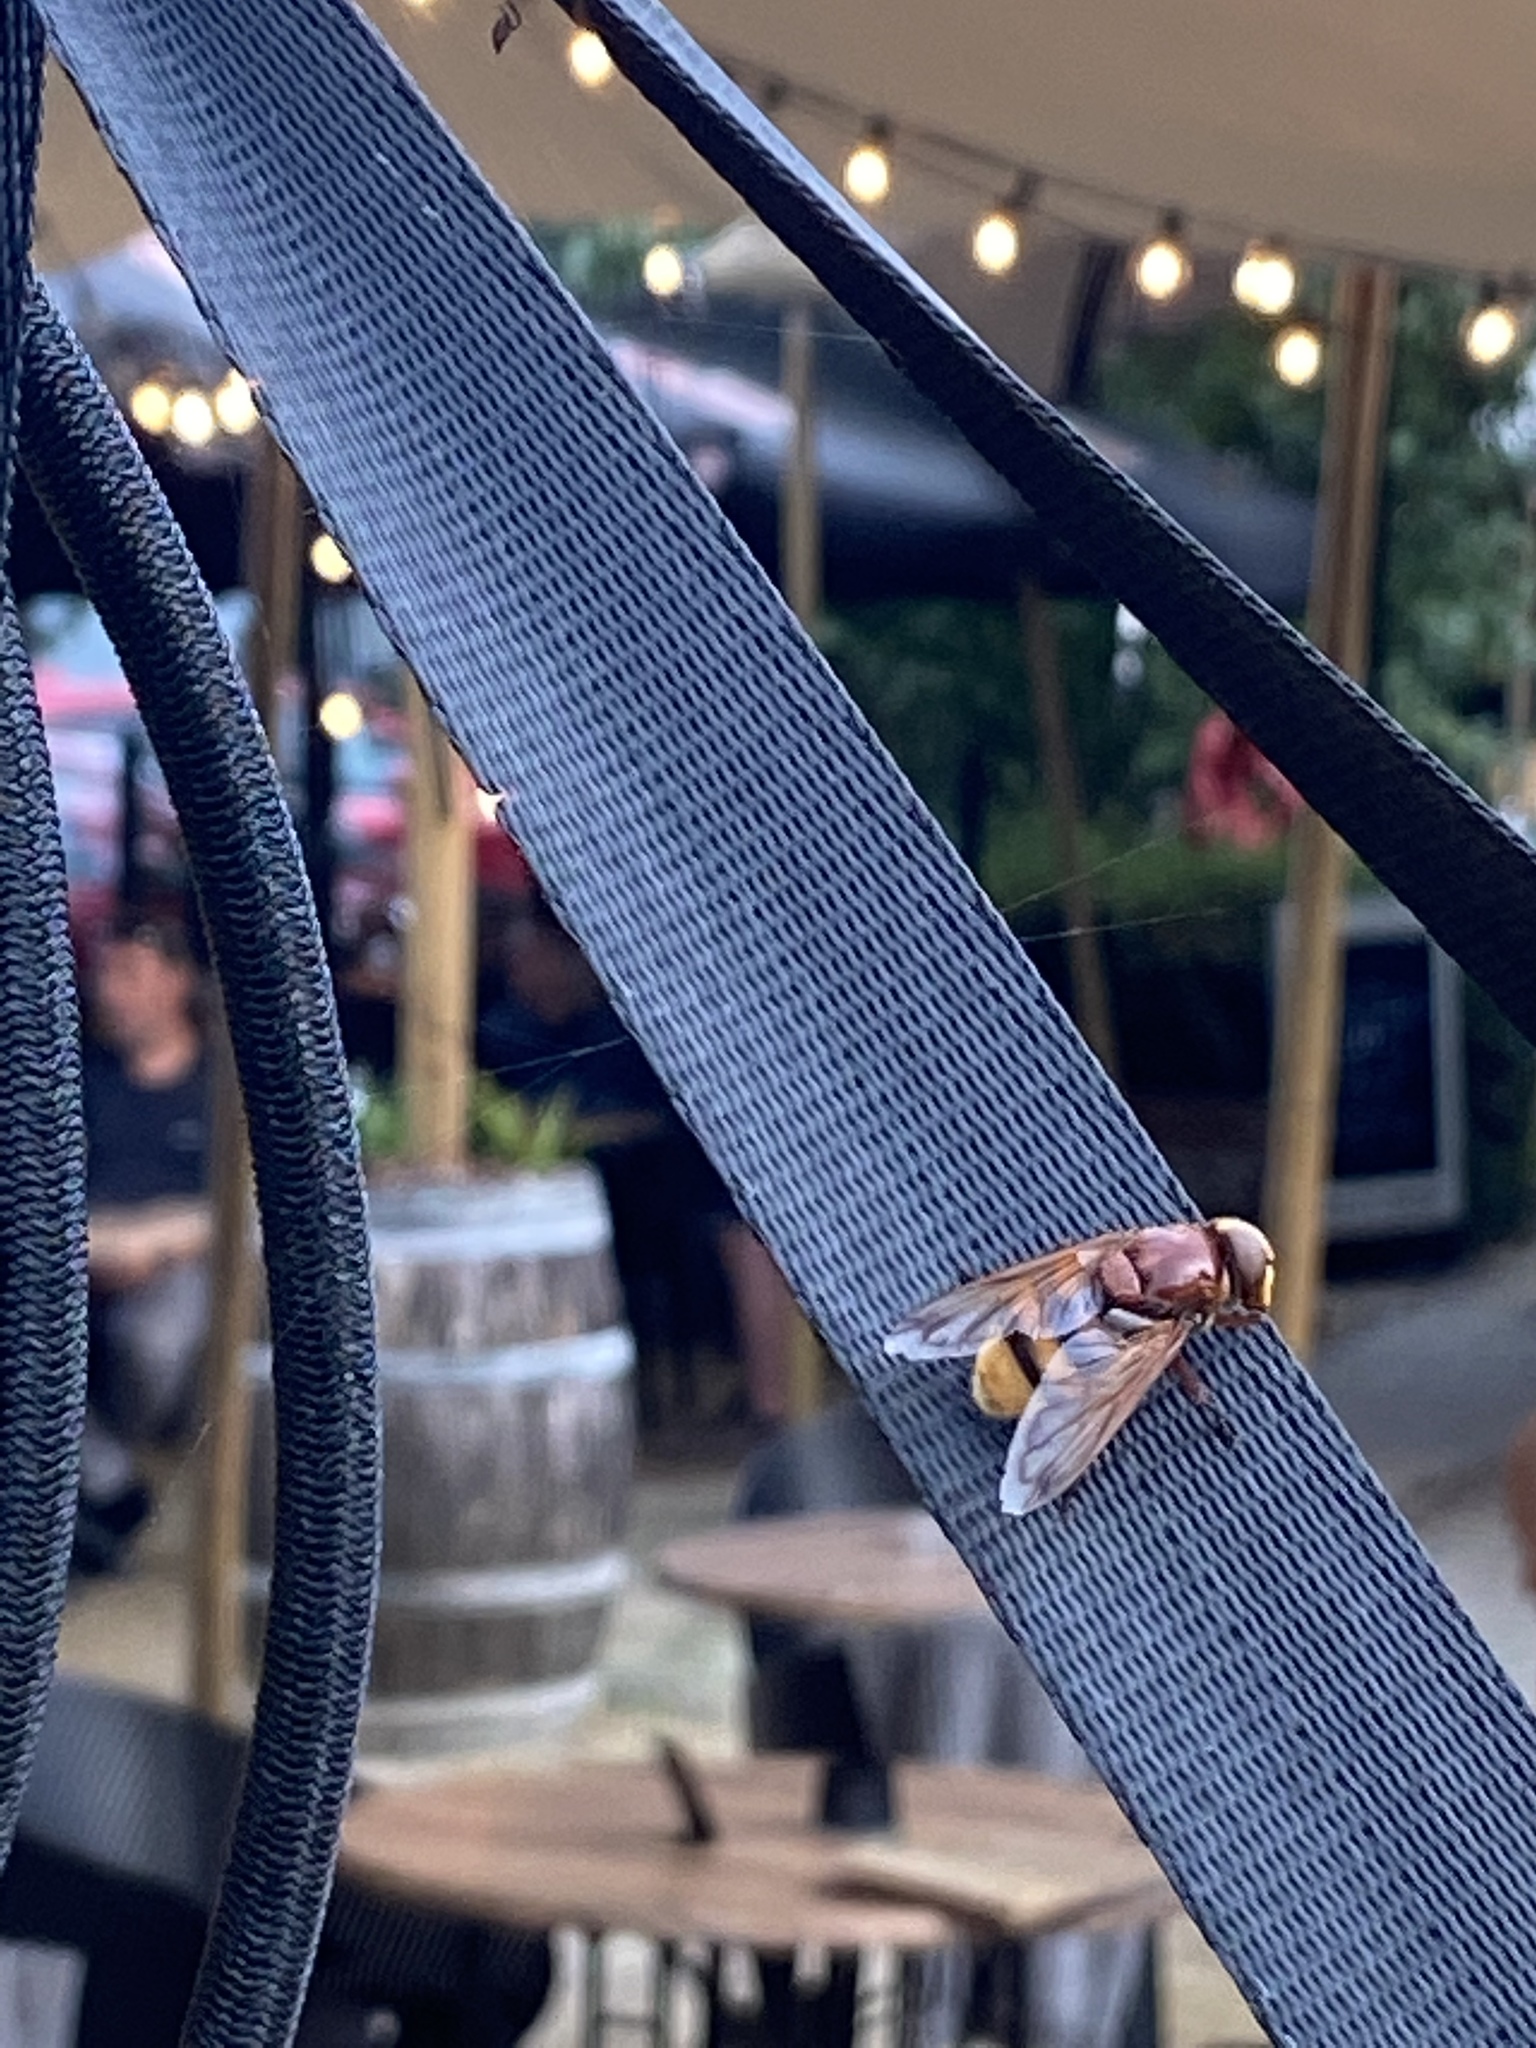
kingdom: Animalia
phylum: Arthropoda
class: Insecta
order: Diptera
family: Syrphidae
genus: Volucella
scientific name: Volucella zonaria
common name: Hornet hoverfly
